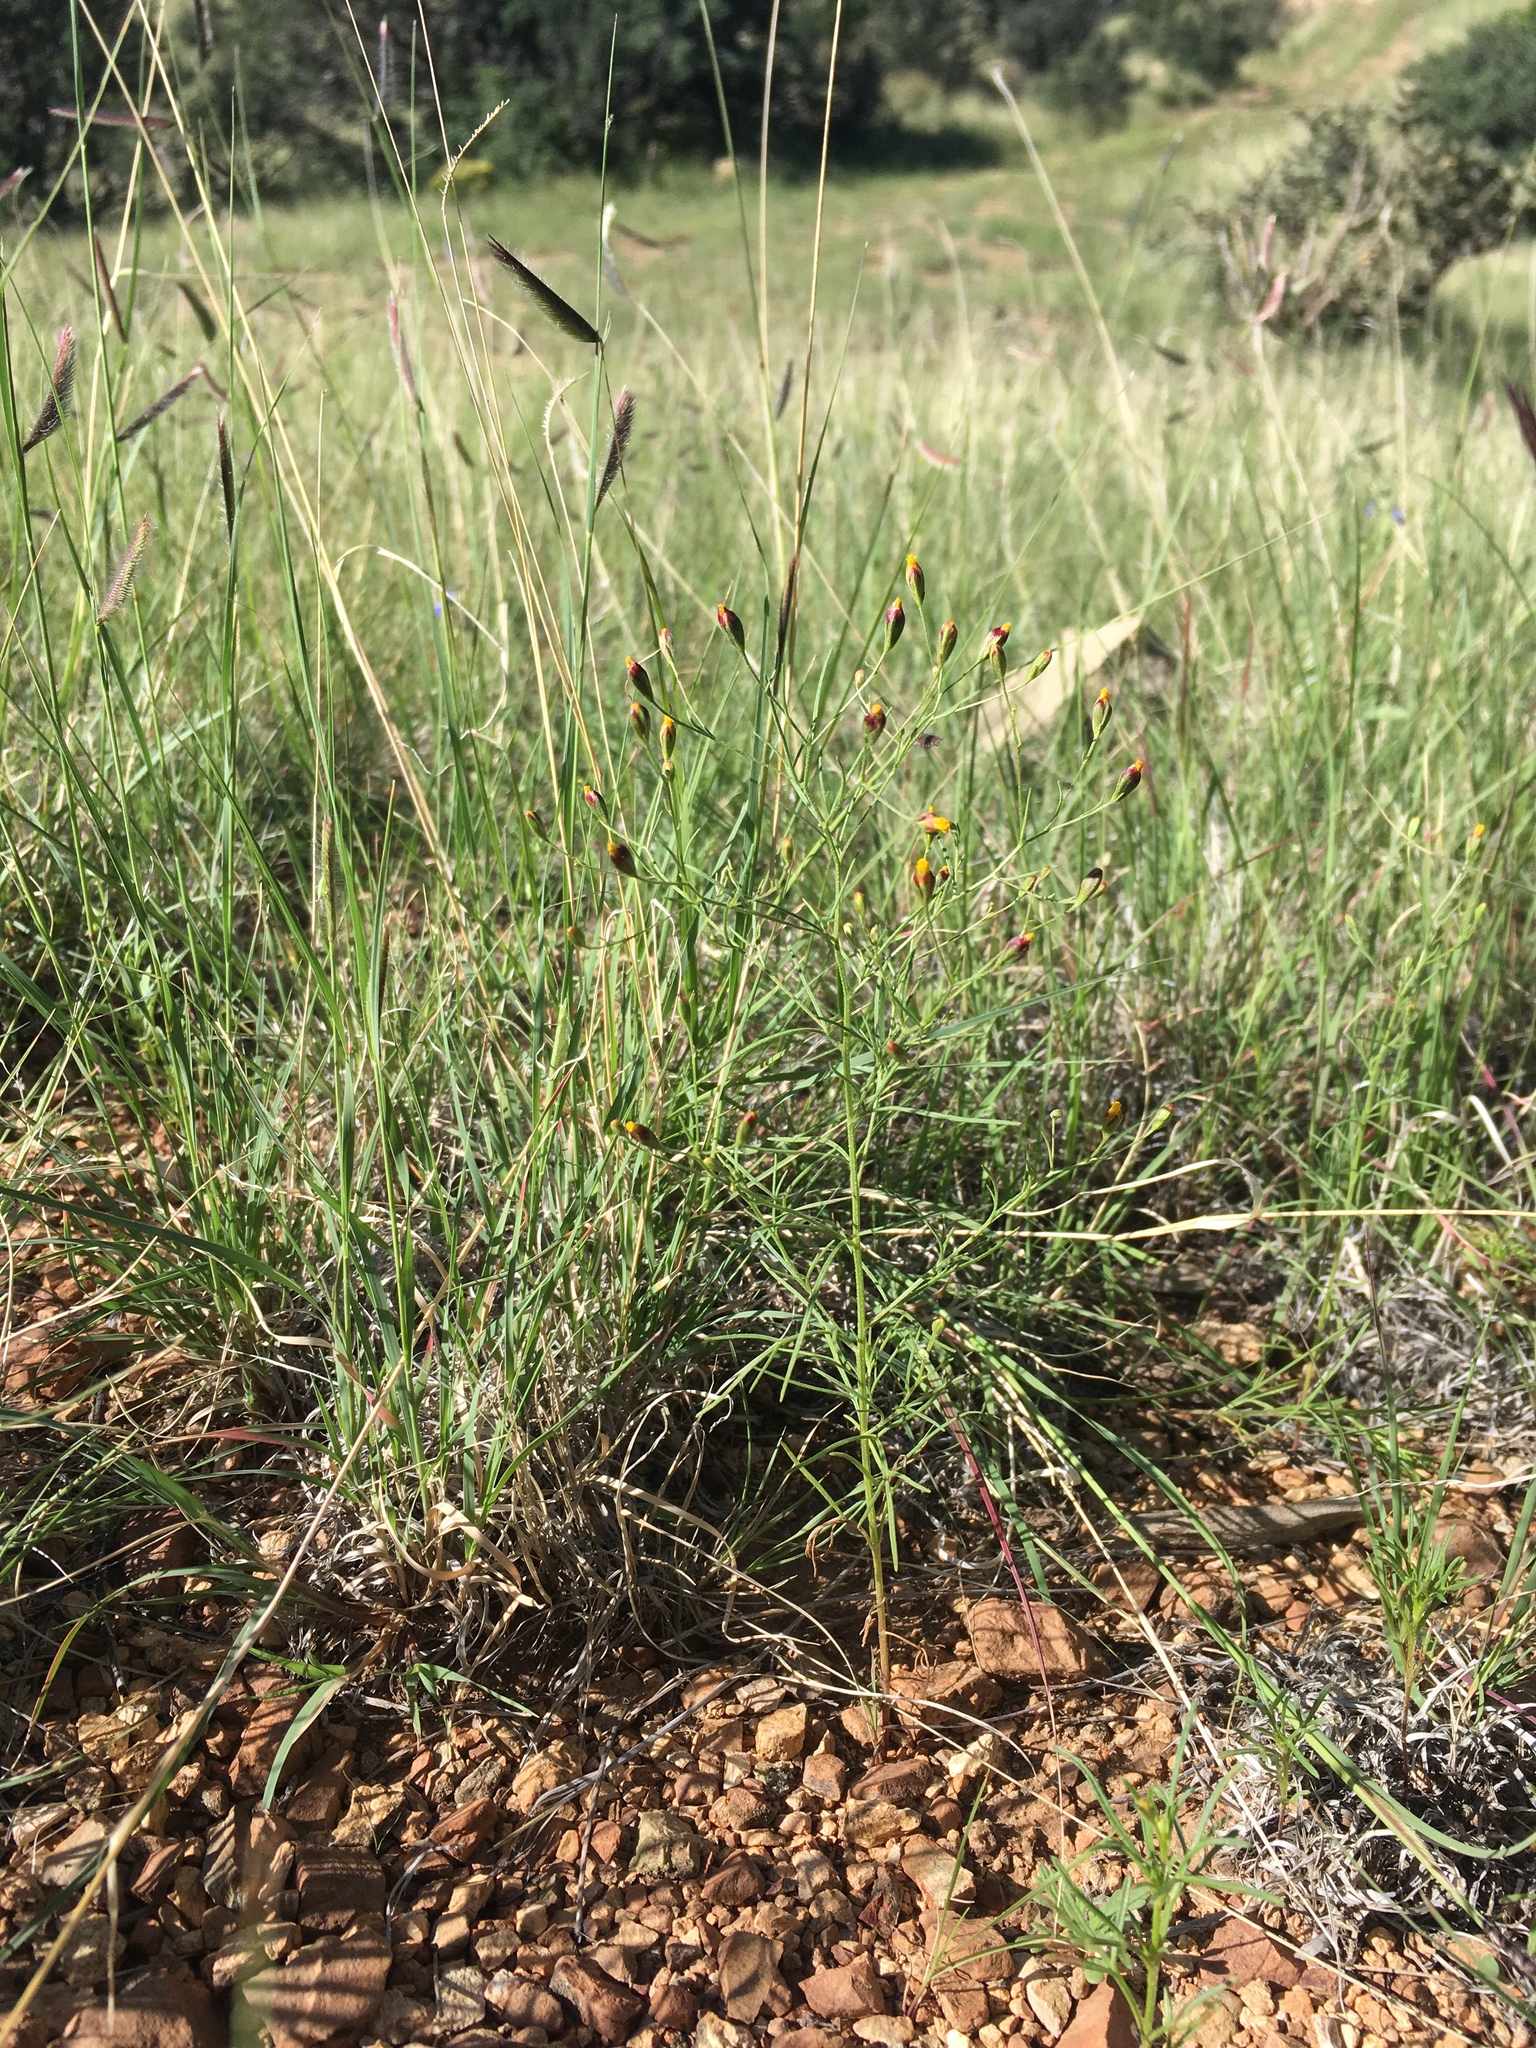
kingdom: Plantae
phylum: Tracheophyta
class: Magnoliopsida
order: Asterales
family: Asteraceae
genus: Schkuhria
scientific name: Schkuhria pinnata
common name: Dwarf marigold
